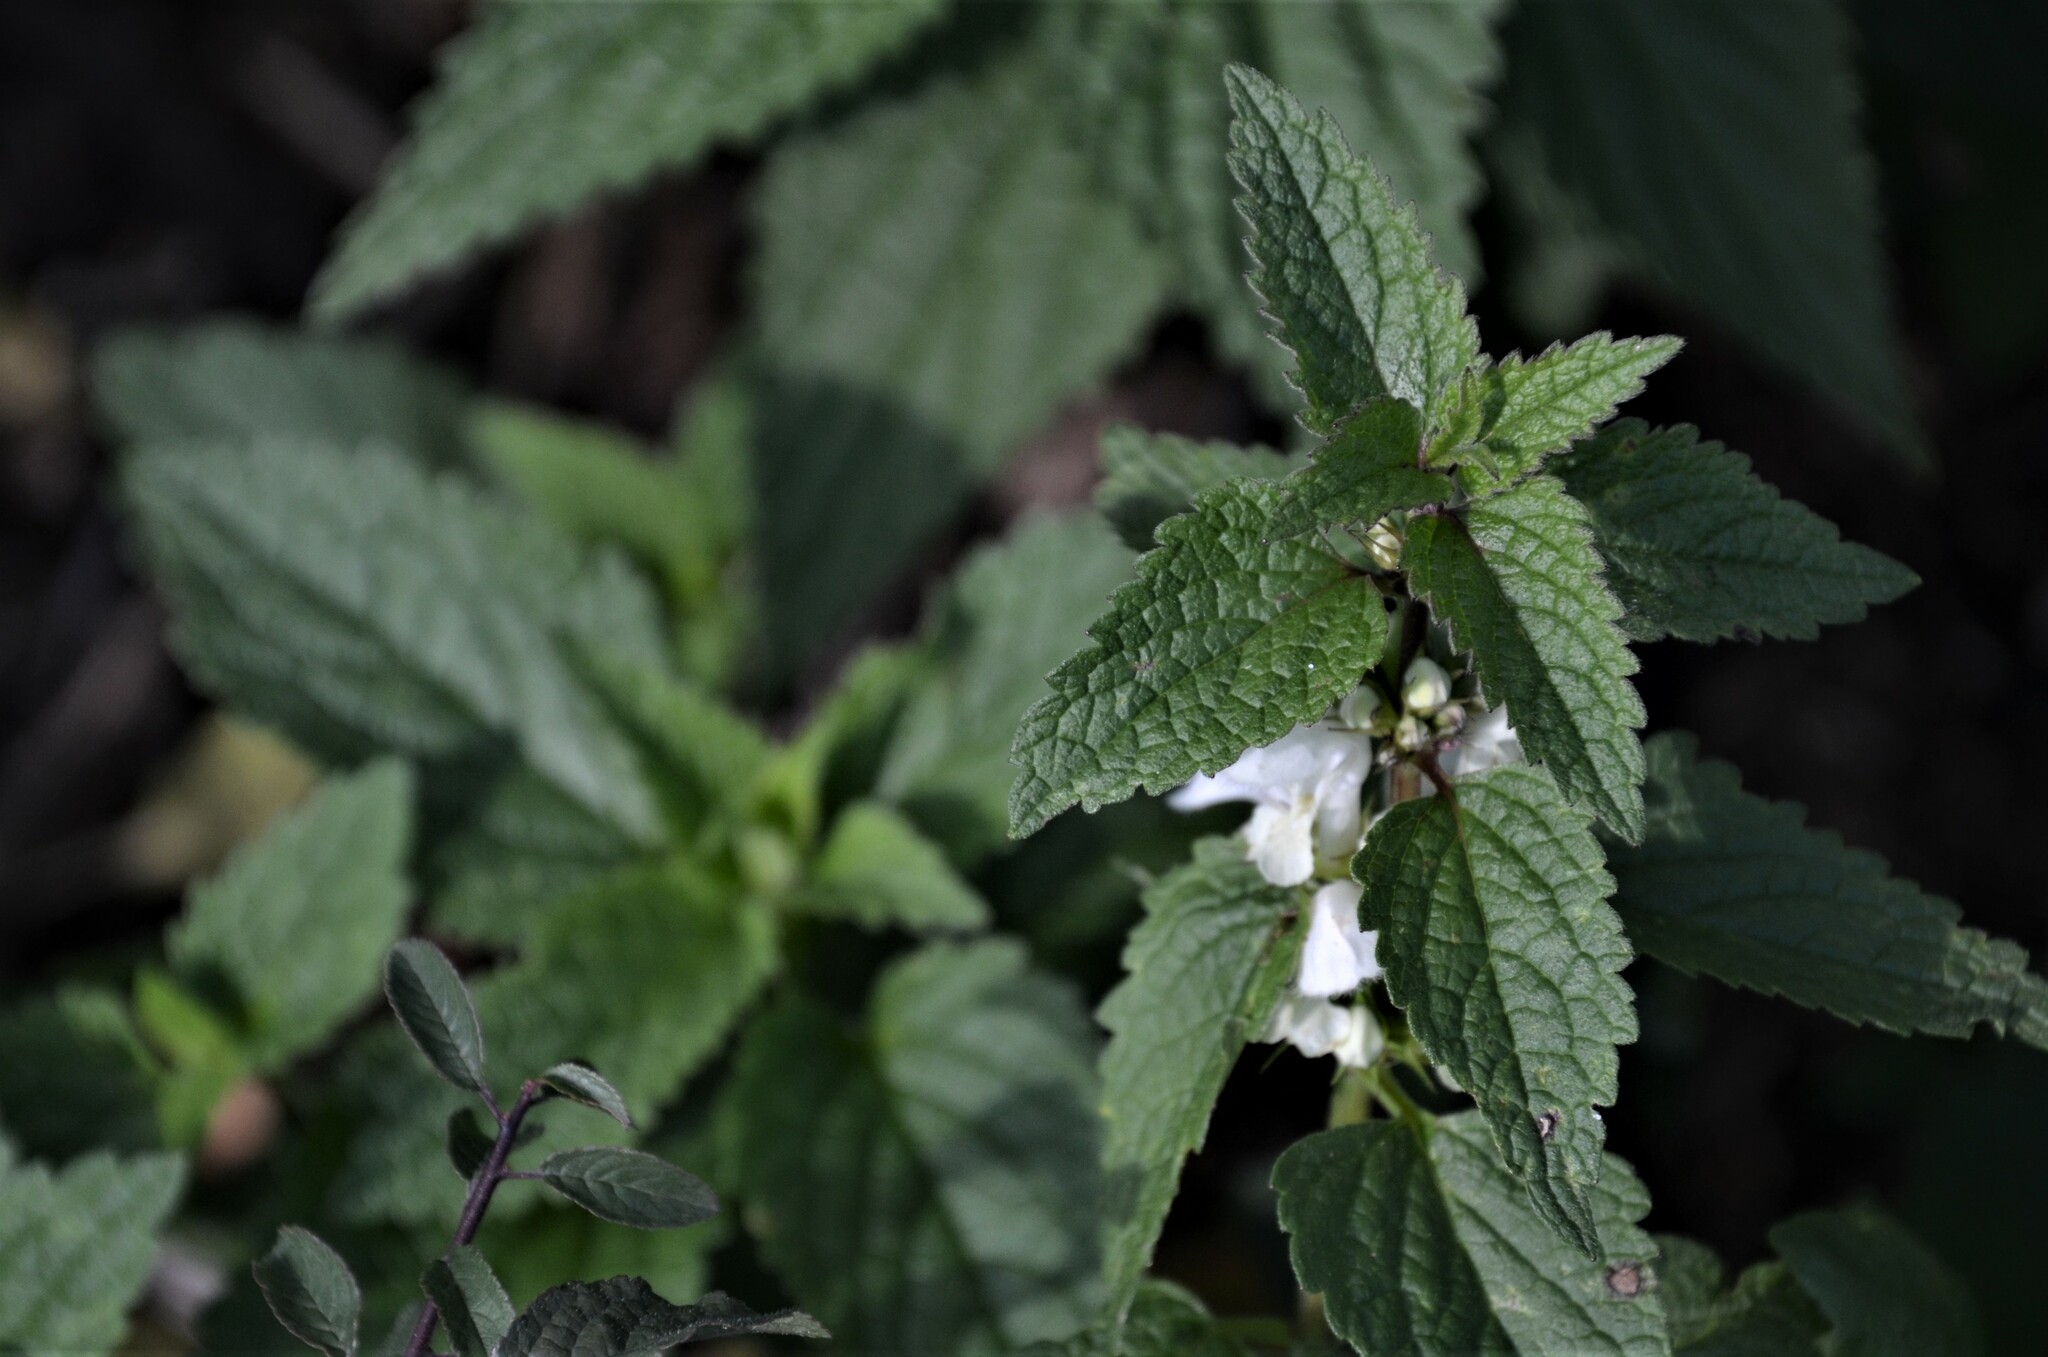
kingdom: Plantae
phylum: Tracheophyta
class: Magnoliopsida
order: Lamiales
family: Lamiaceae
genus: Lamium
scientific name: Lamium album
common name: White dead-nettle
